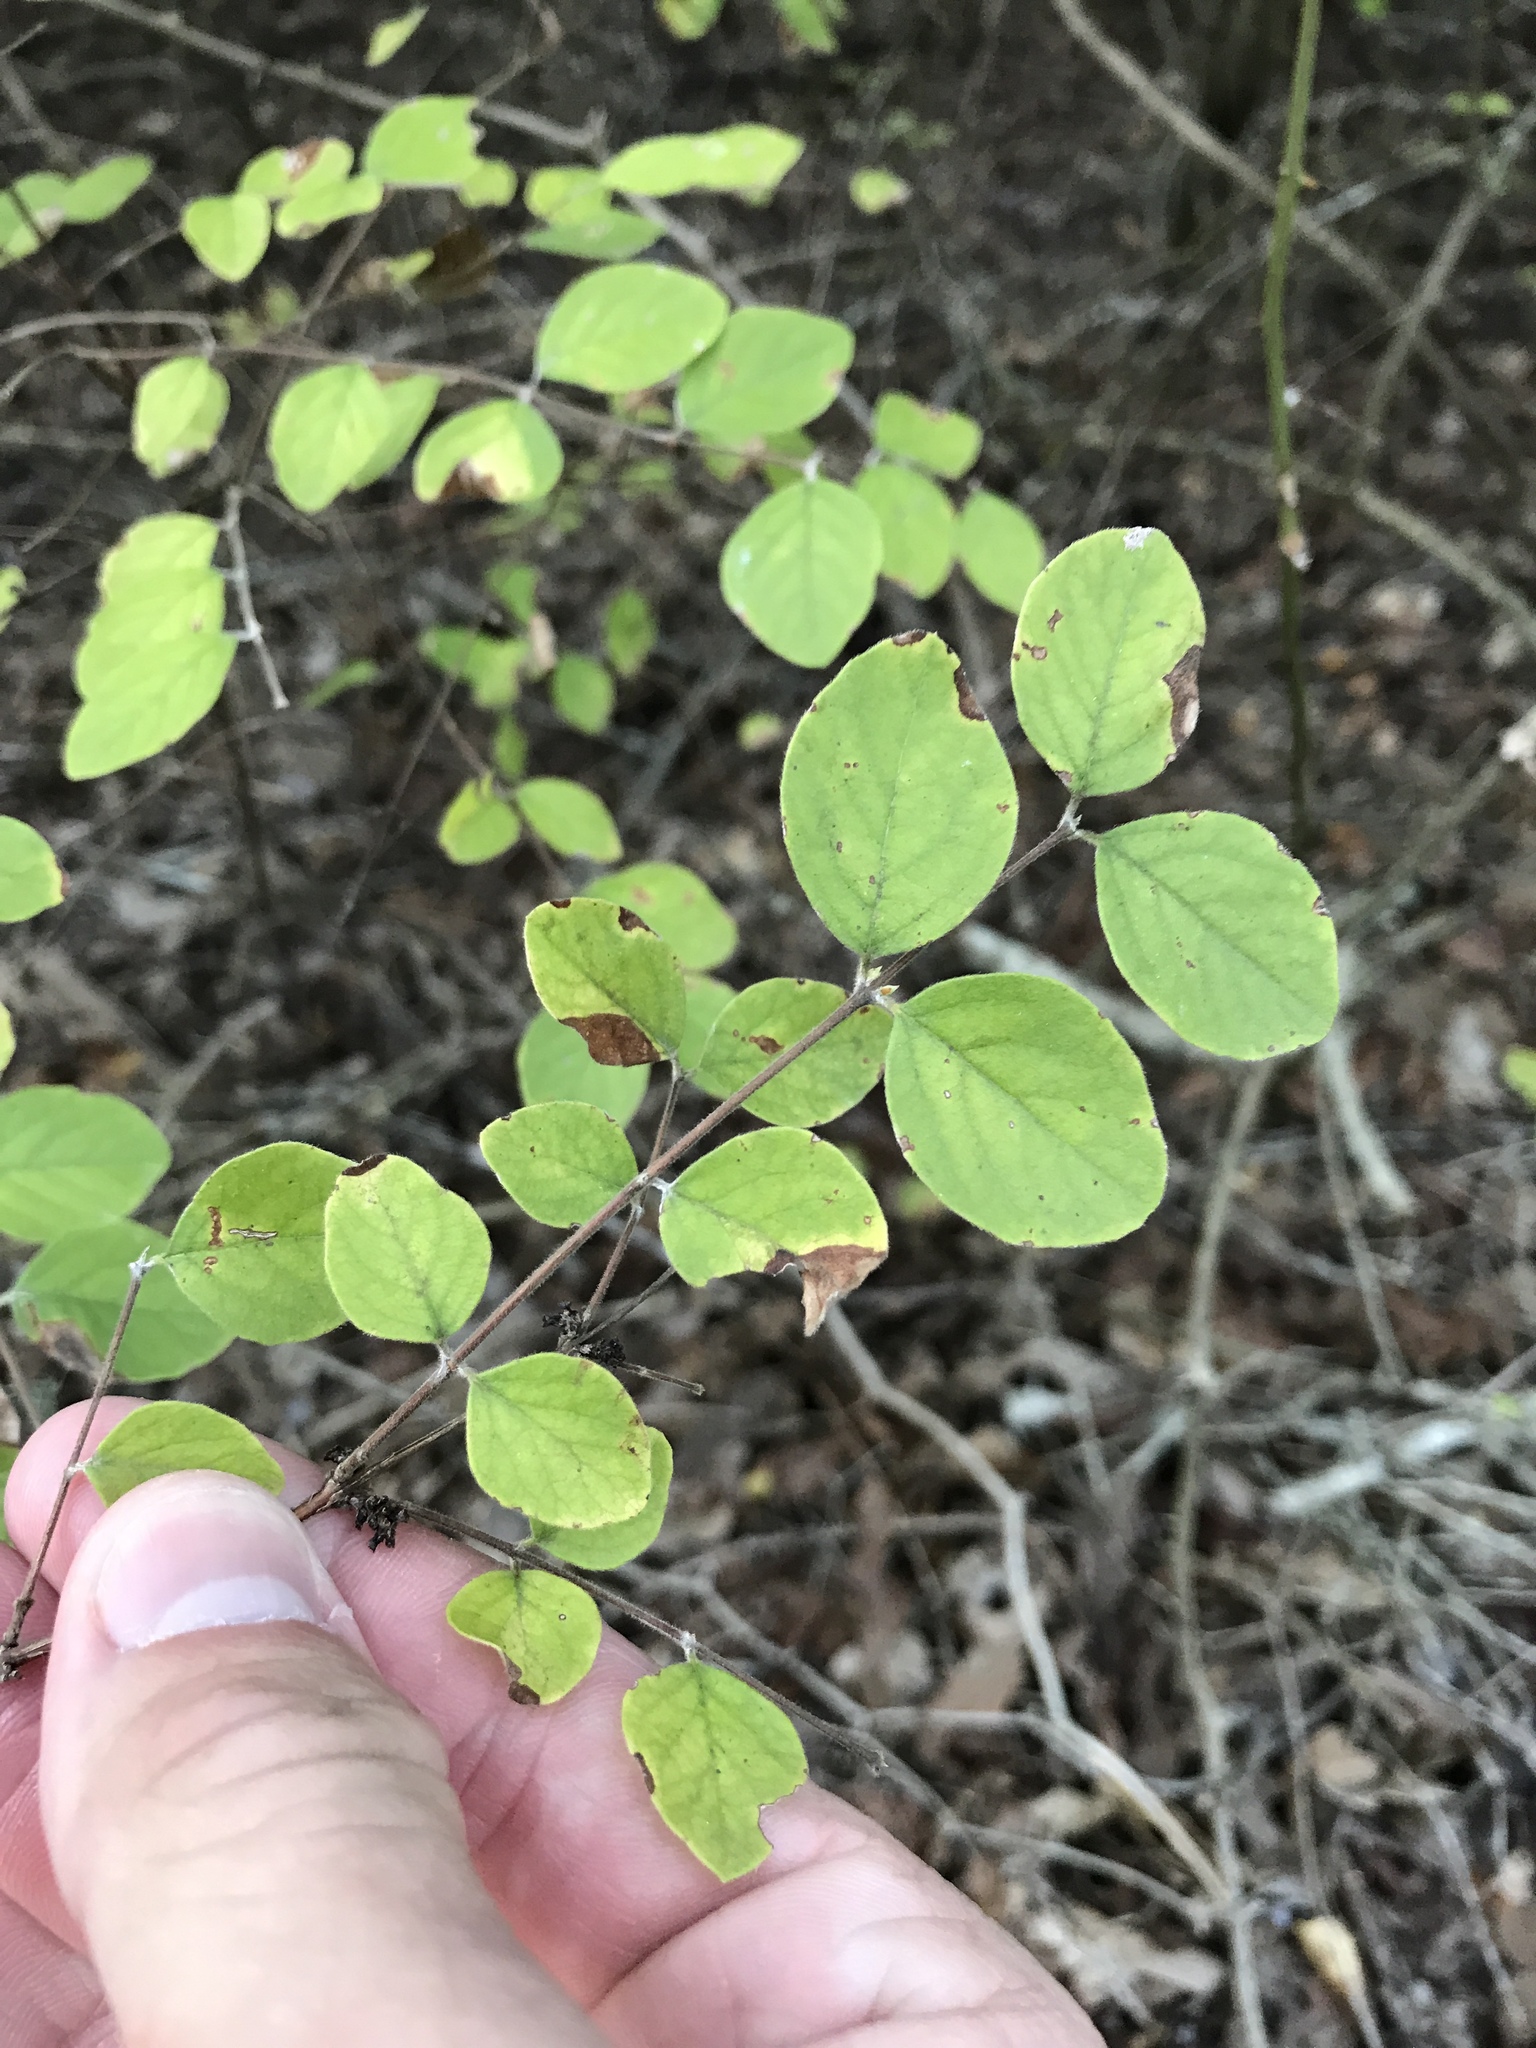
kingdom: Plantae
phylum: Tracheophyta
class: Magnoliopsida
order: Dipsacales
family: Caprifoliaceae
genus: Symphoricarpos
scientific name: Symphoricarpos orbiculatus
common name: Coralberry
